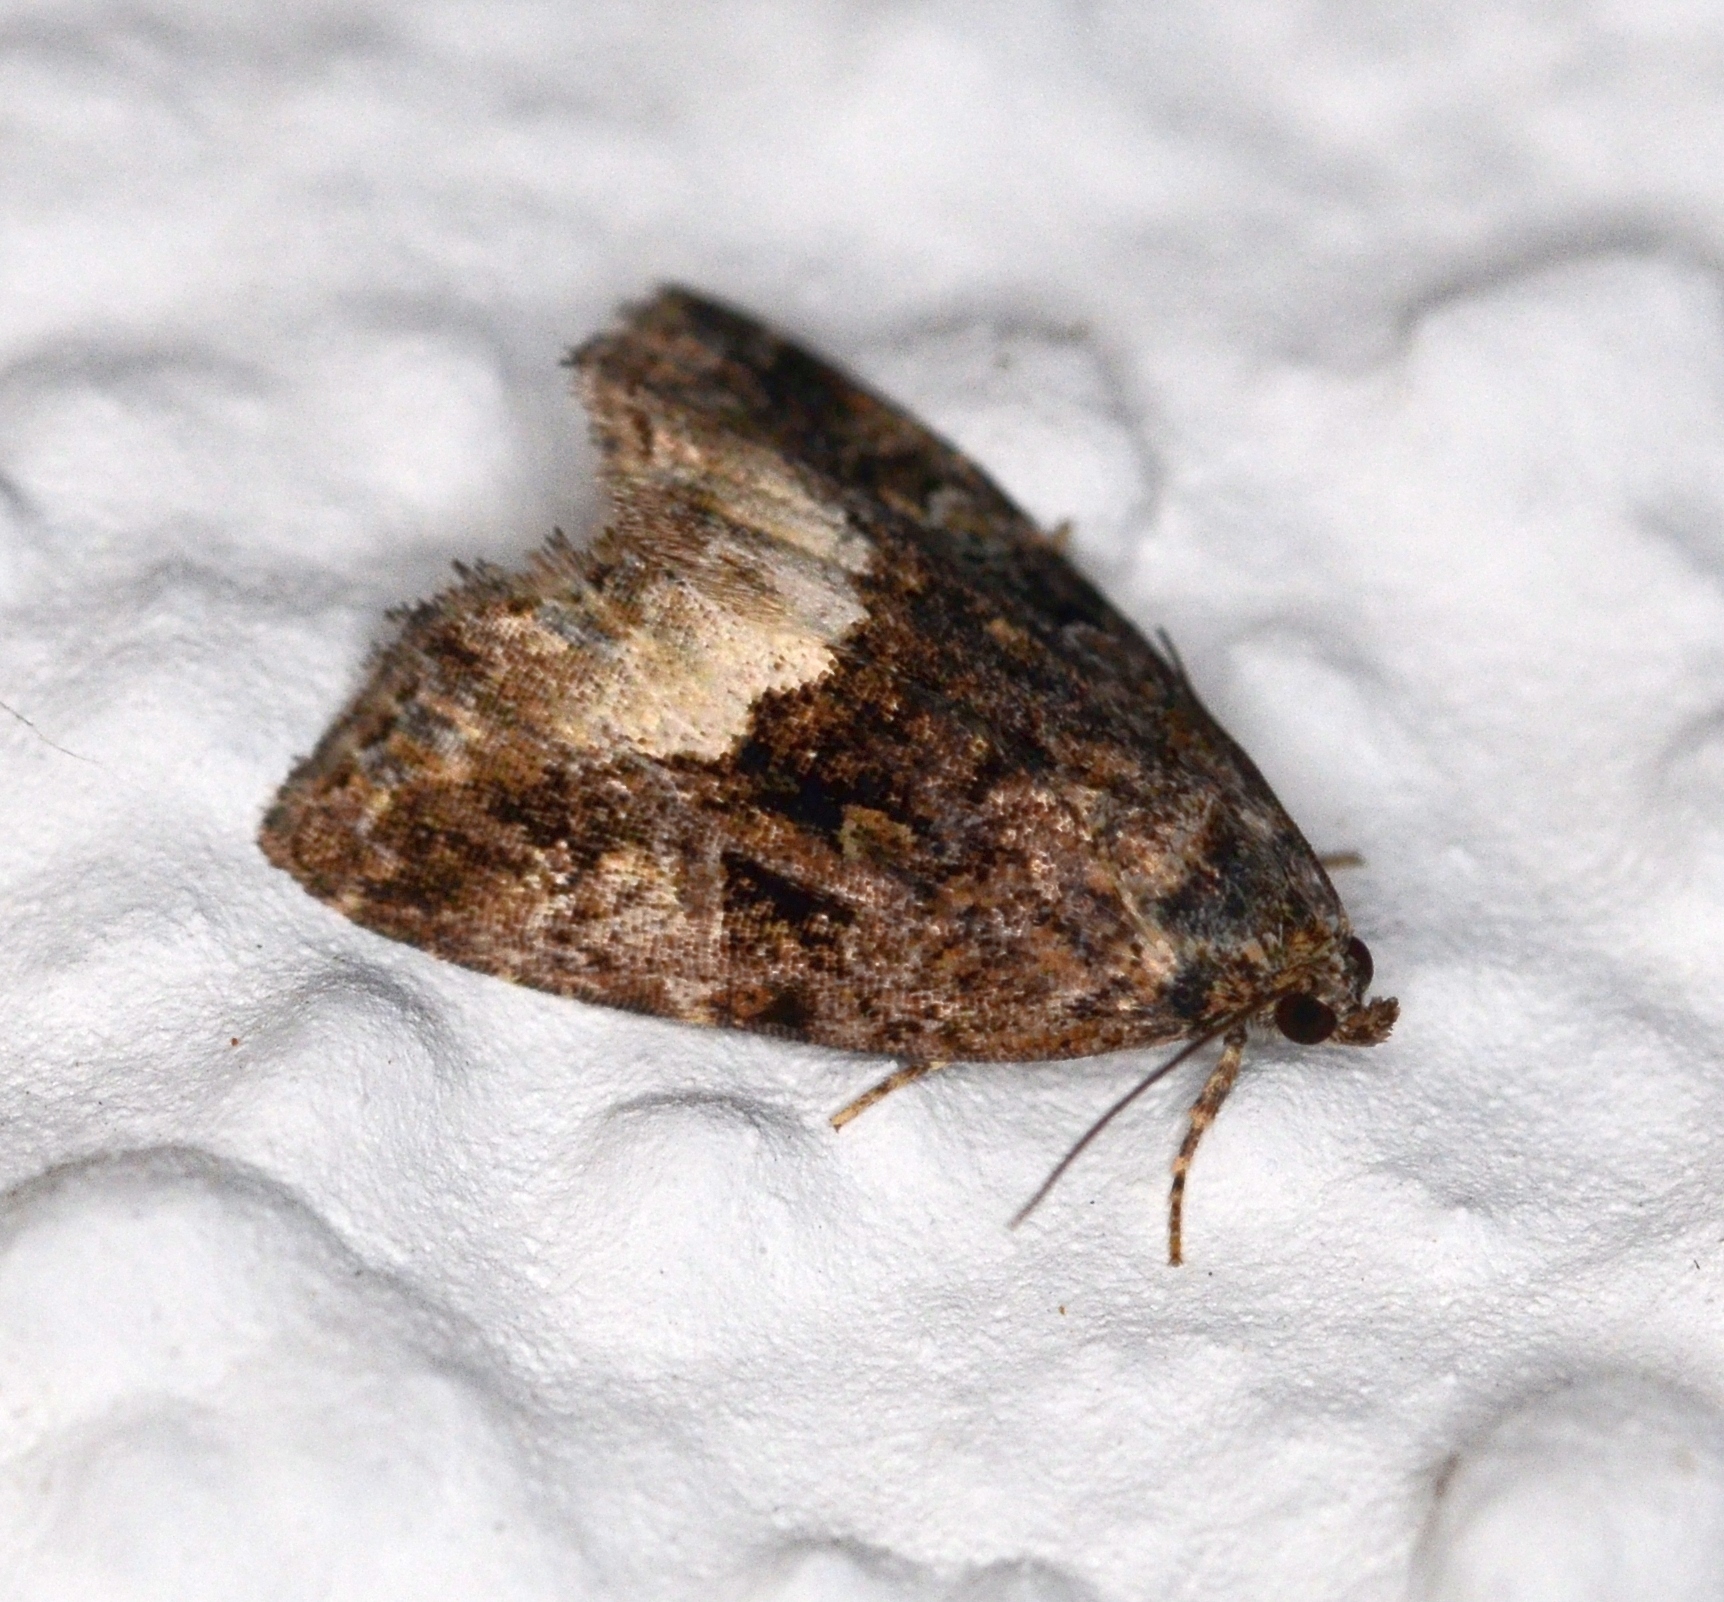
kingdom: Animalia
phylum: Arthropoda
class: Insecta
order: Lepidoptera
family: Noctuidae
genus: Deltote
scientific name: Deltote pygarga
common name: Marbled white spot
